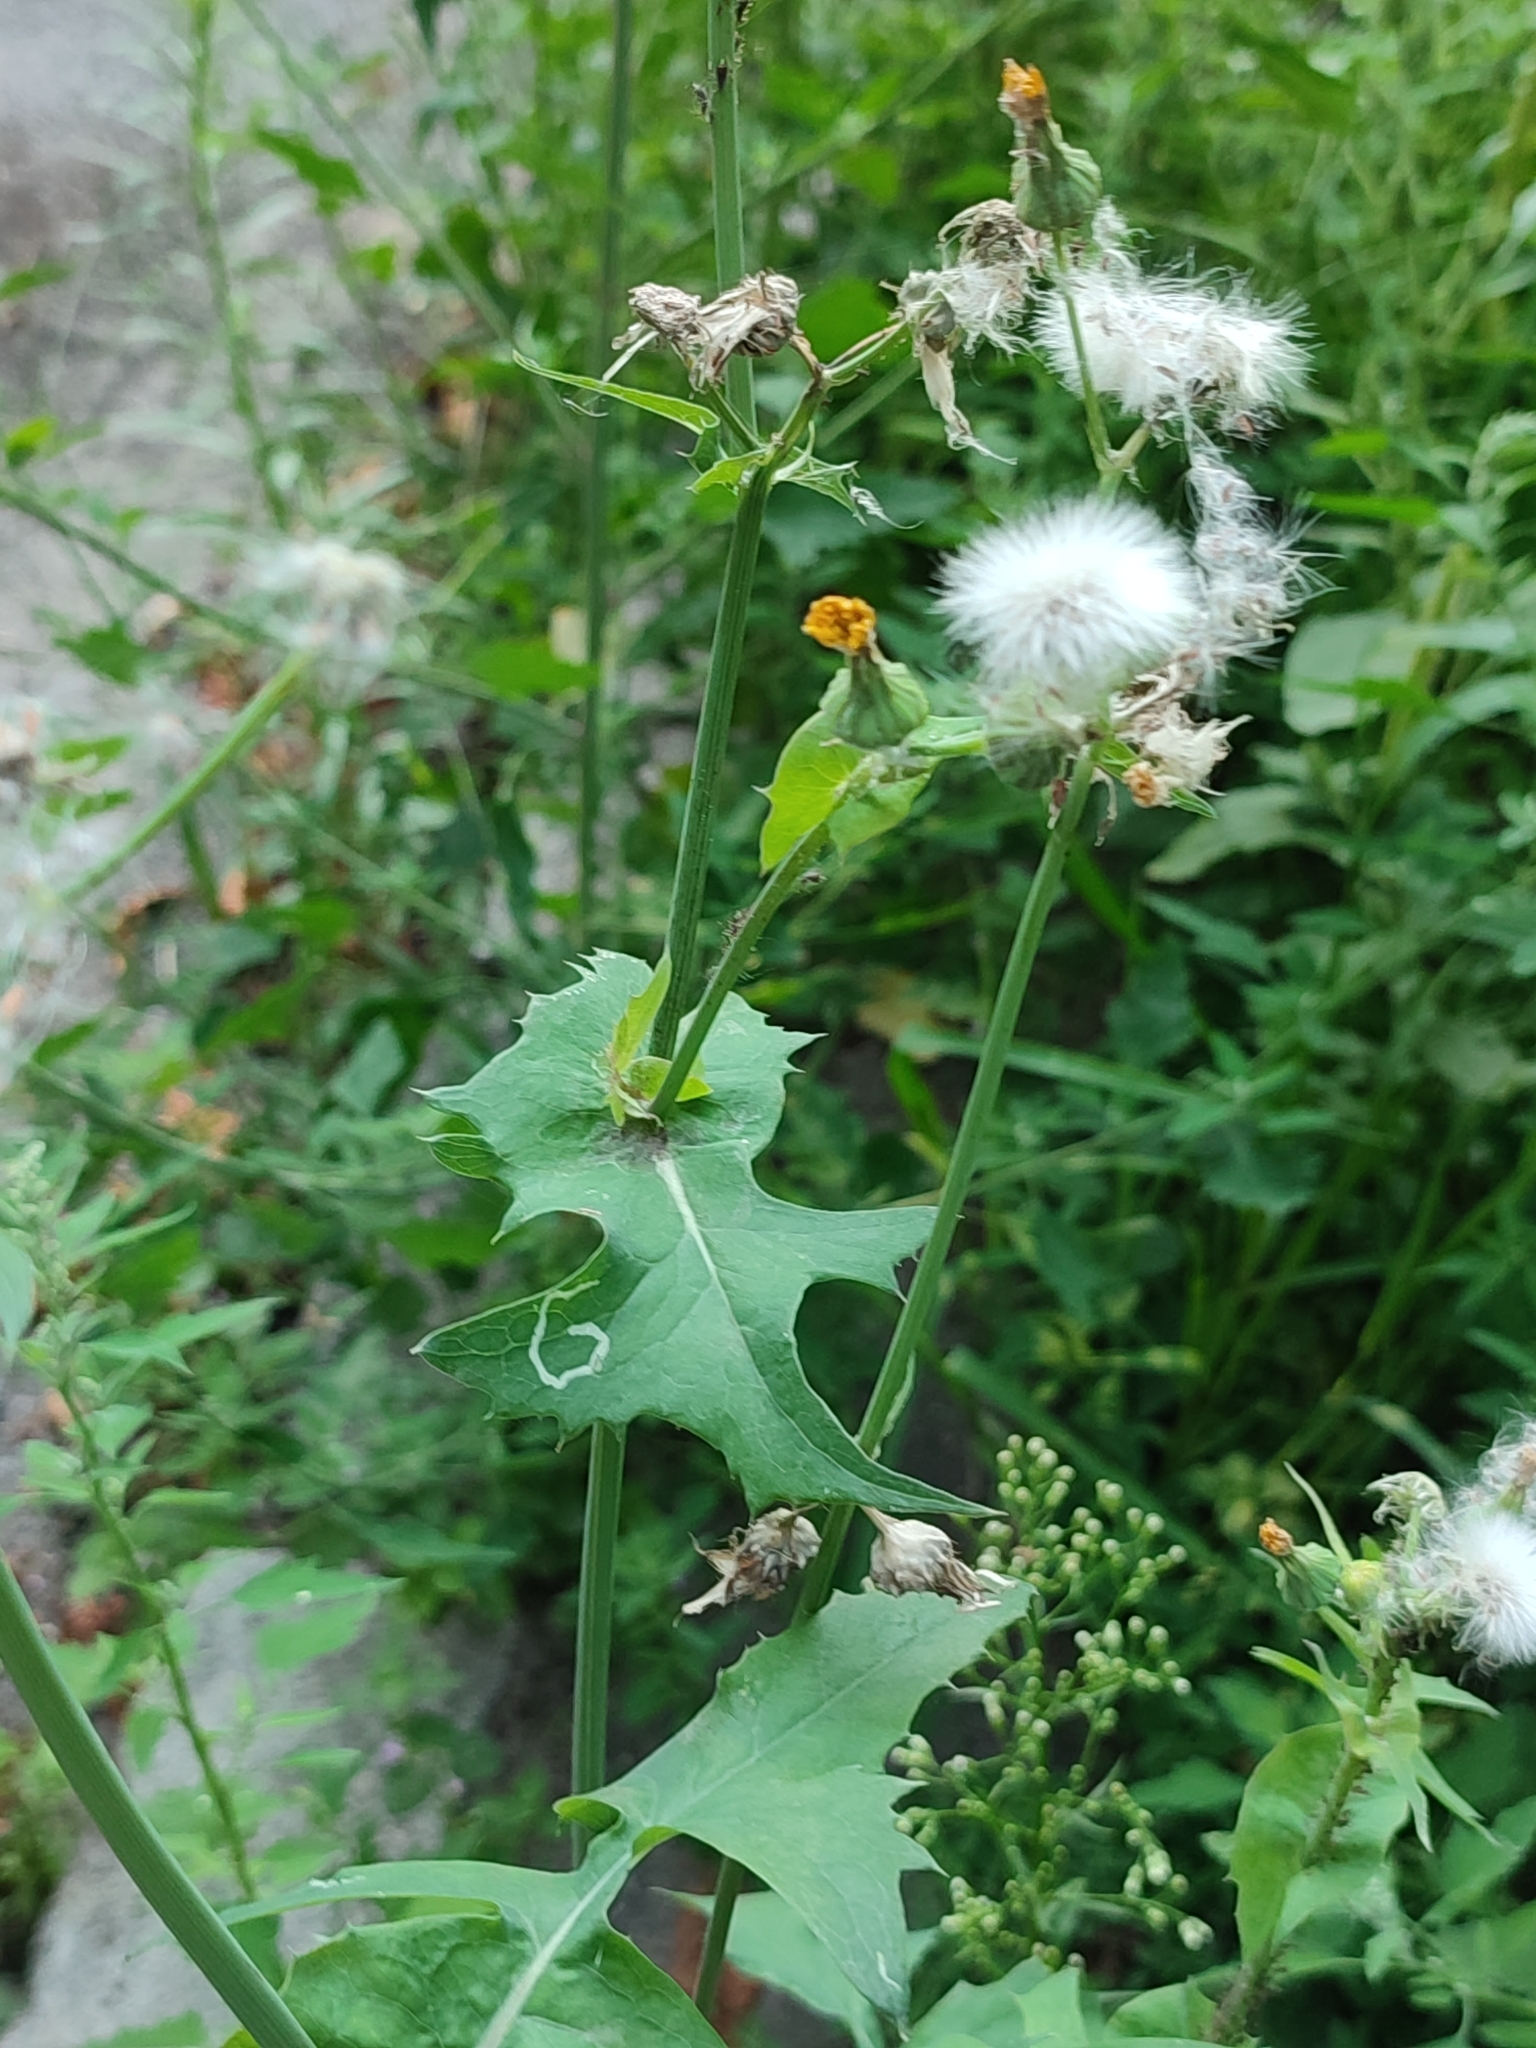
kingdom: Plantae
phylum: Tracheophyta
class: Magnoliopsida
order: Asterales
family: Asteraceae
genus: Sonchus
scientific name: Sonchus oleraceus
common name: Common sowthistle
